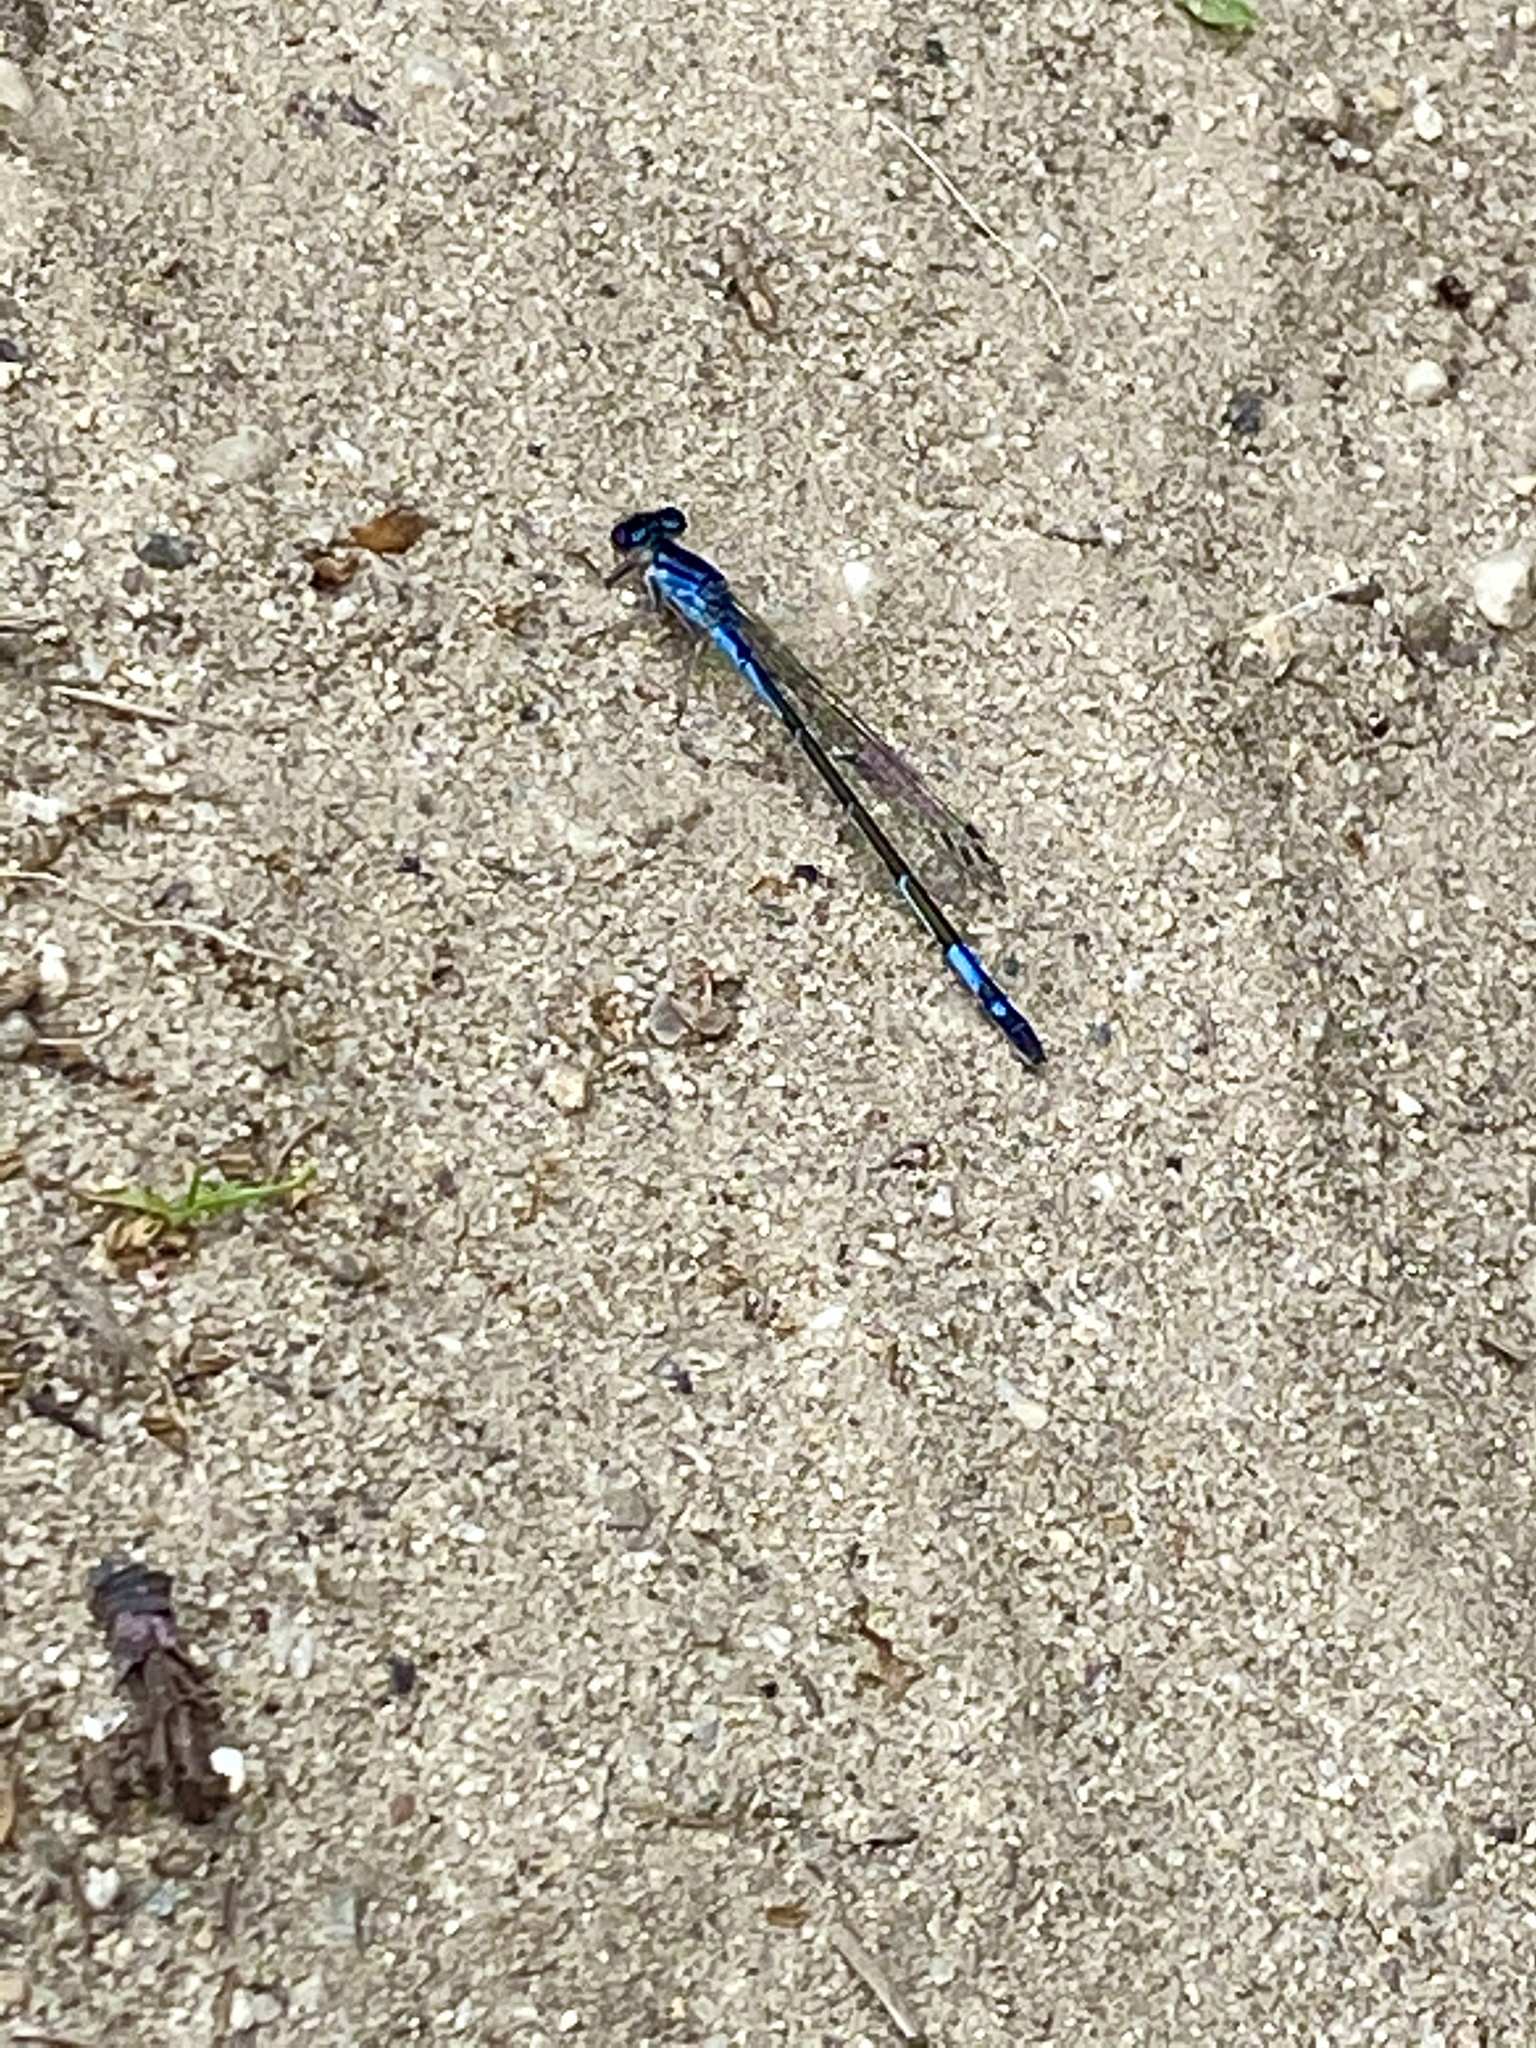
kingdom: Animalia
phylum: Arthropoda
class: Insecta
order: Odonata
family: Coenagrionidae
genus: Enallagma
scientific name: Enallagma aspersum
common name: Azure bluet
